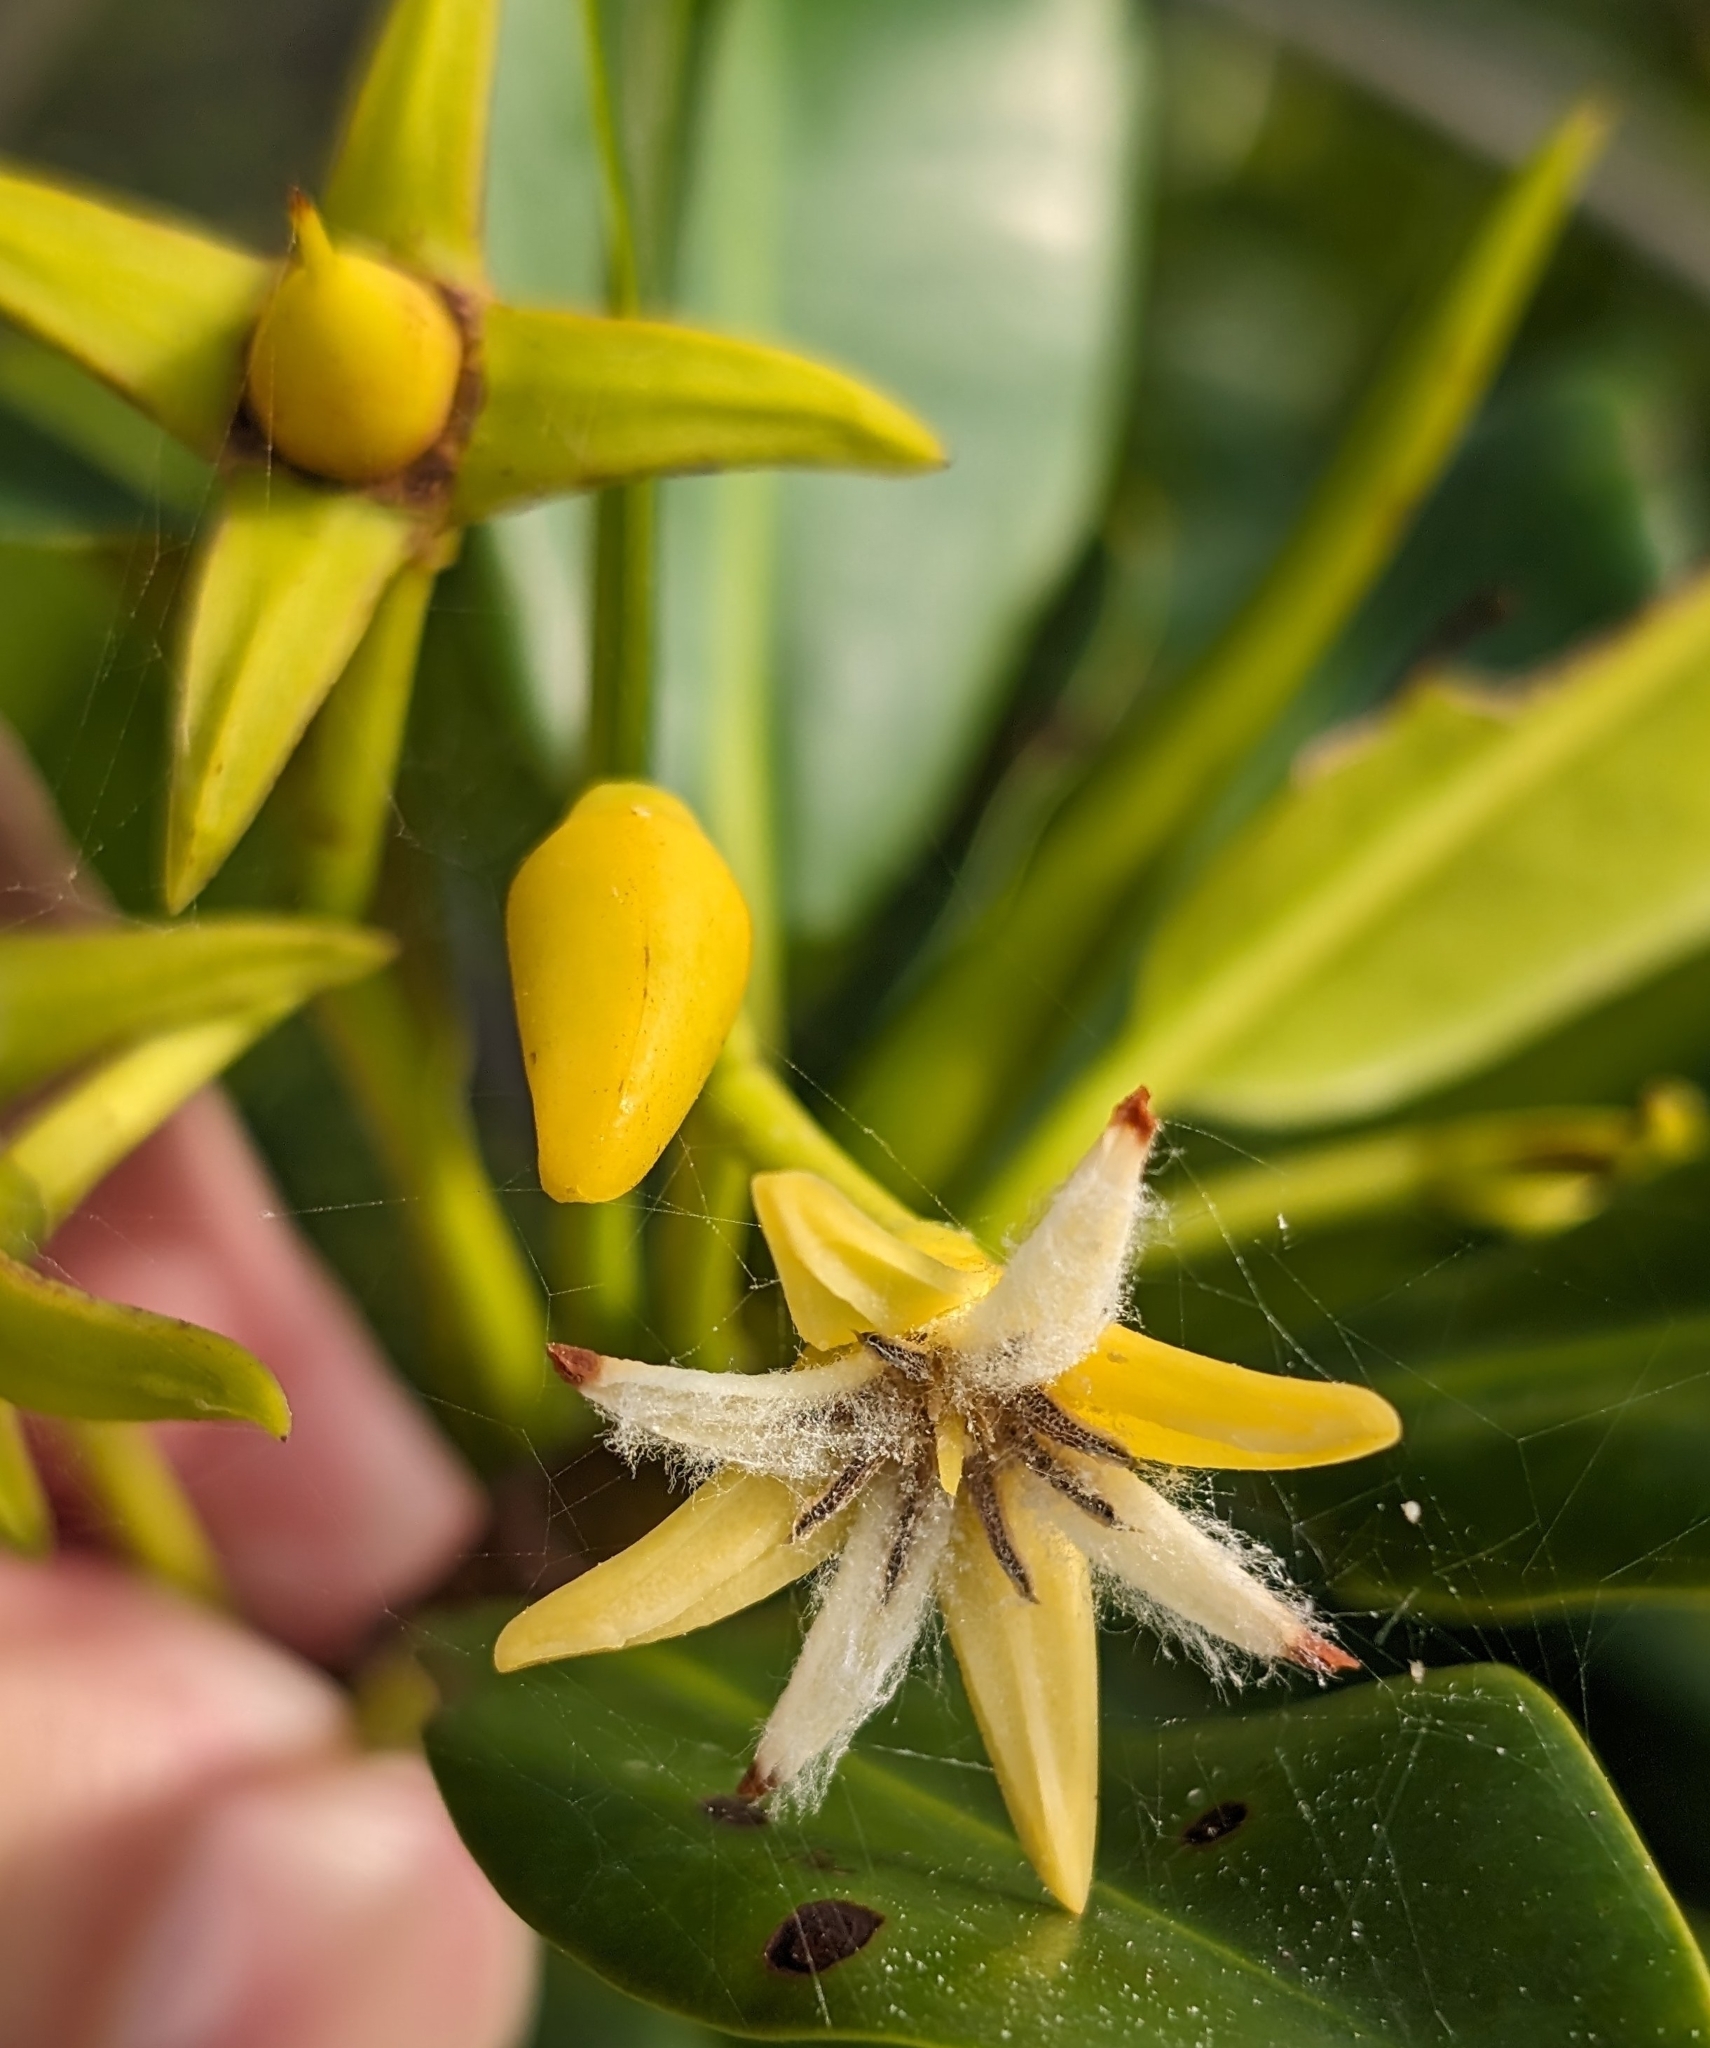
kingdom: Plantae
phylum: Tracheophyta
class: Magnoliopsida
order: Malpighiales
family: Rhizophoraceae
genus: Rhizophora
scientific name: Rhizophora mangle
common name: Red mangrove
